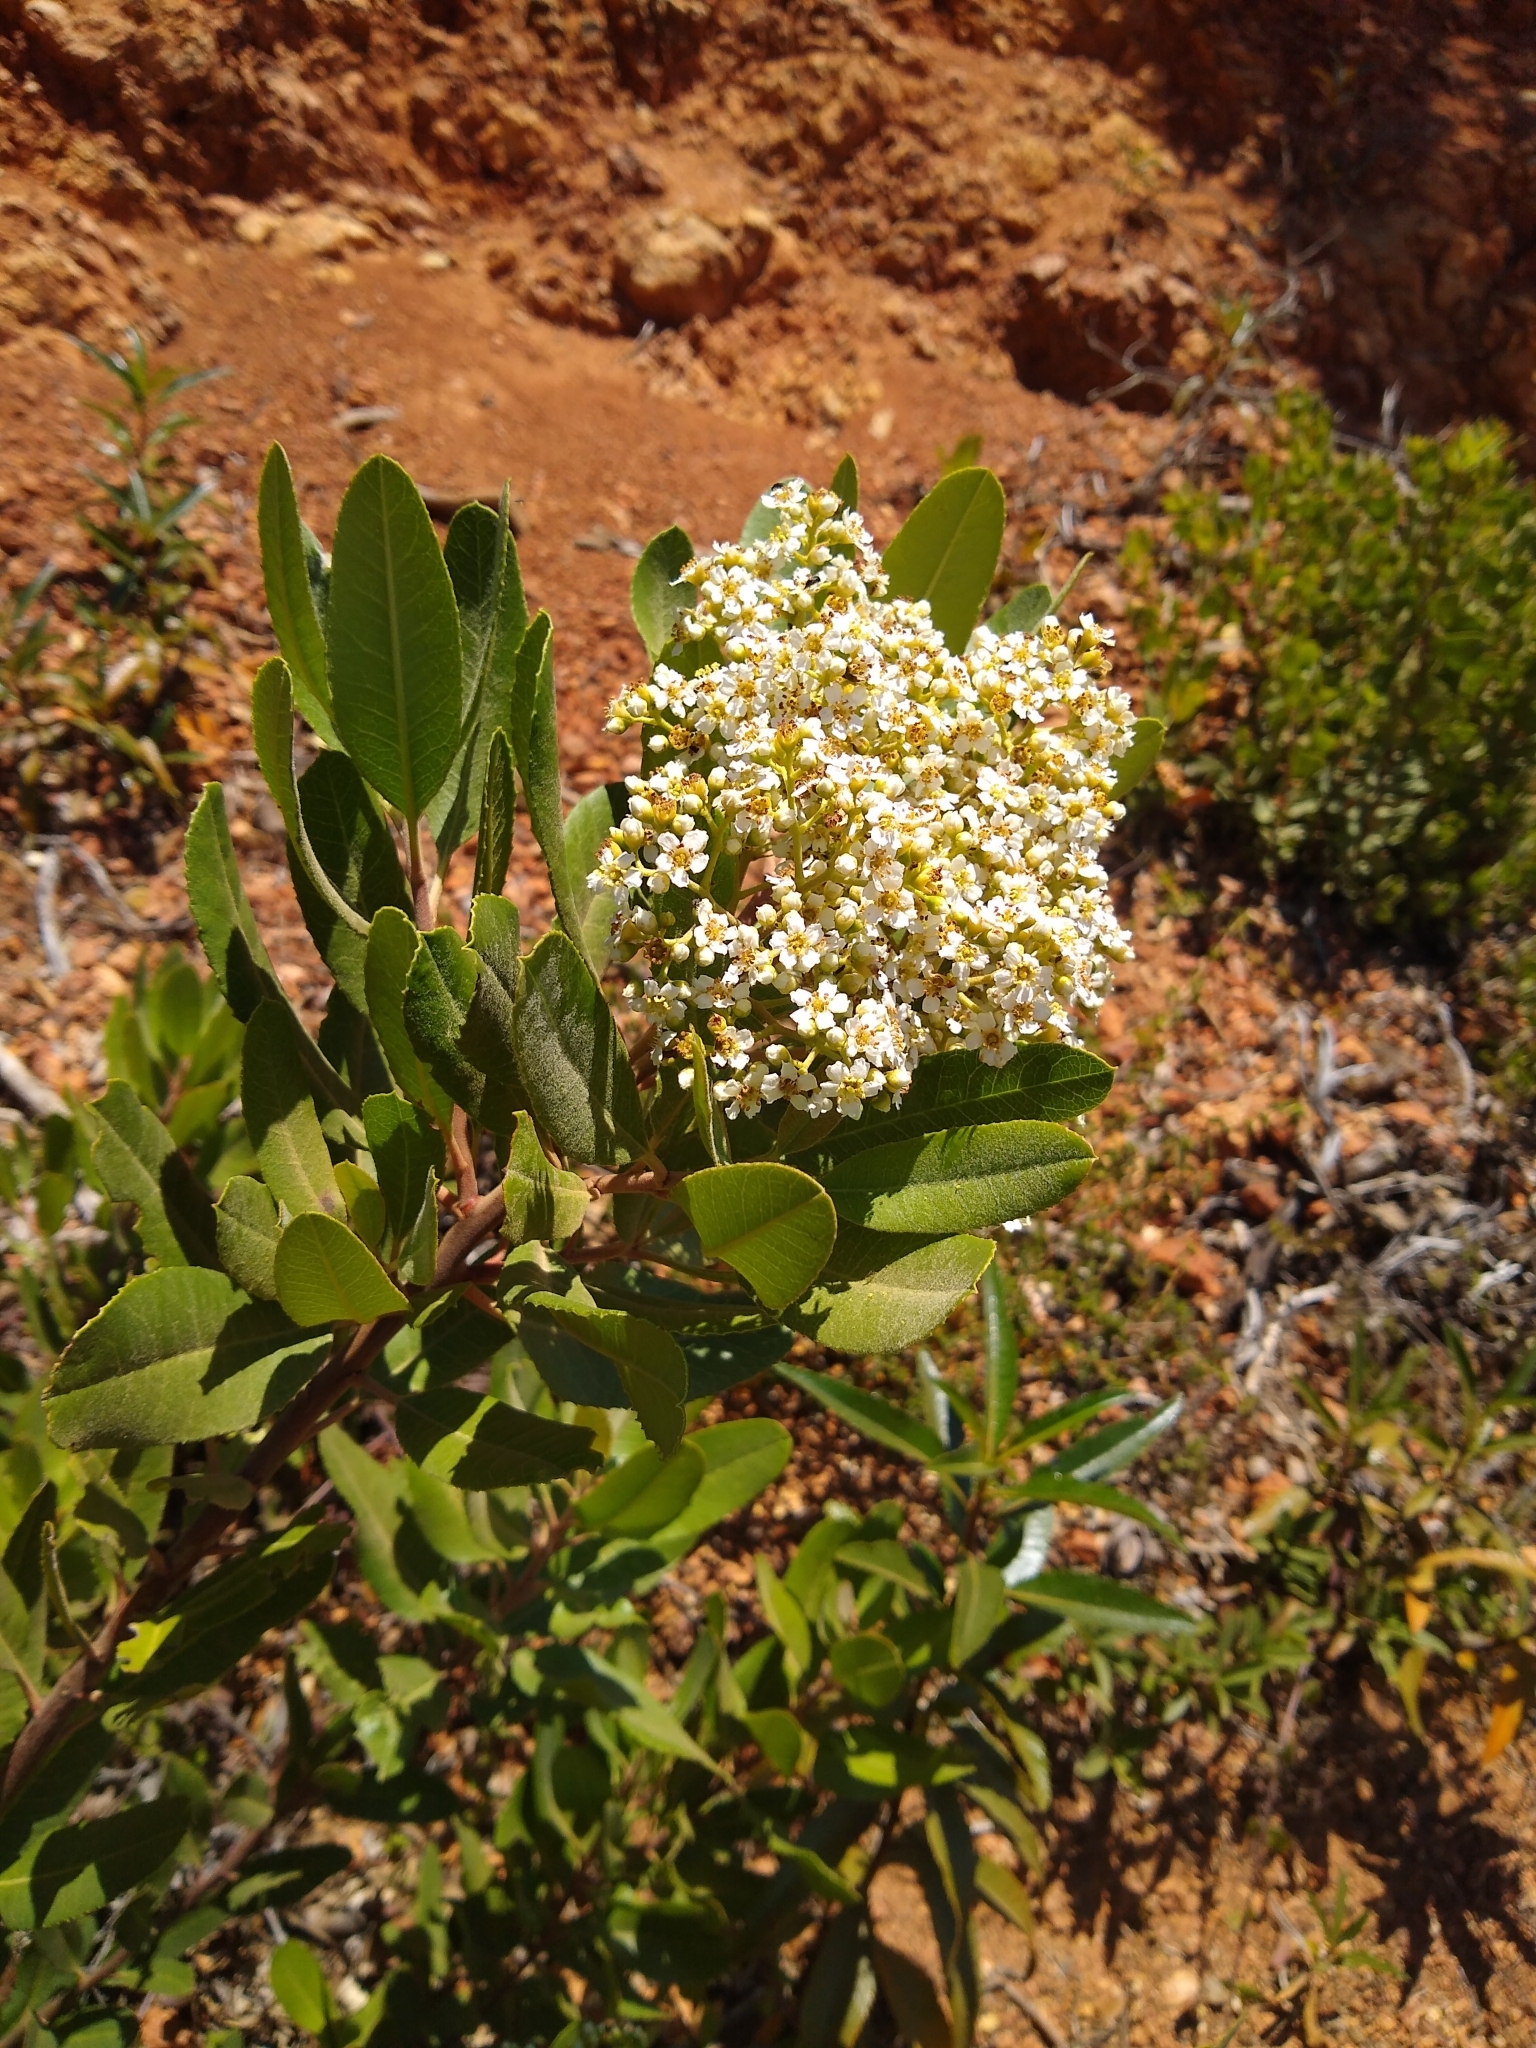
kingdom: Plantae
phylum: Tracheophyta
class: Magnoliopsida
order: Rosales
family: Rosaceae
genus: Heteromeles
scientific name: Heteromeles arbutifolia
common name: California-holly
